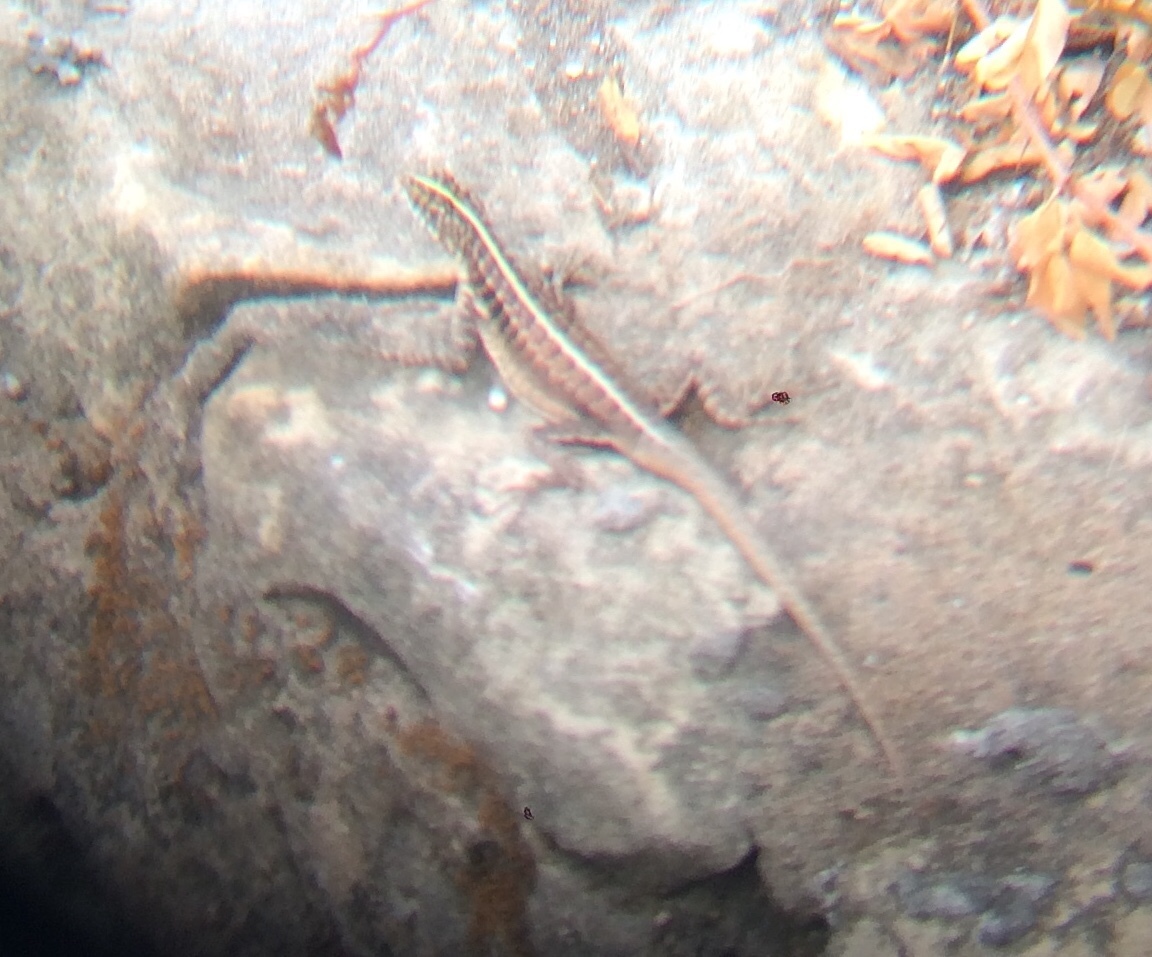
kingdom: Animalia
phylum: Chordata
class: Squamata
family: Tropiduridae
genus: Tropidurus
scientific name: Tropidurus semitaeniatus
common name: Striped lava lizard
